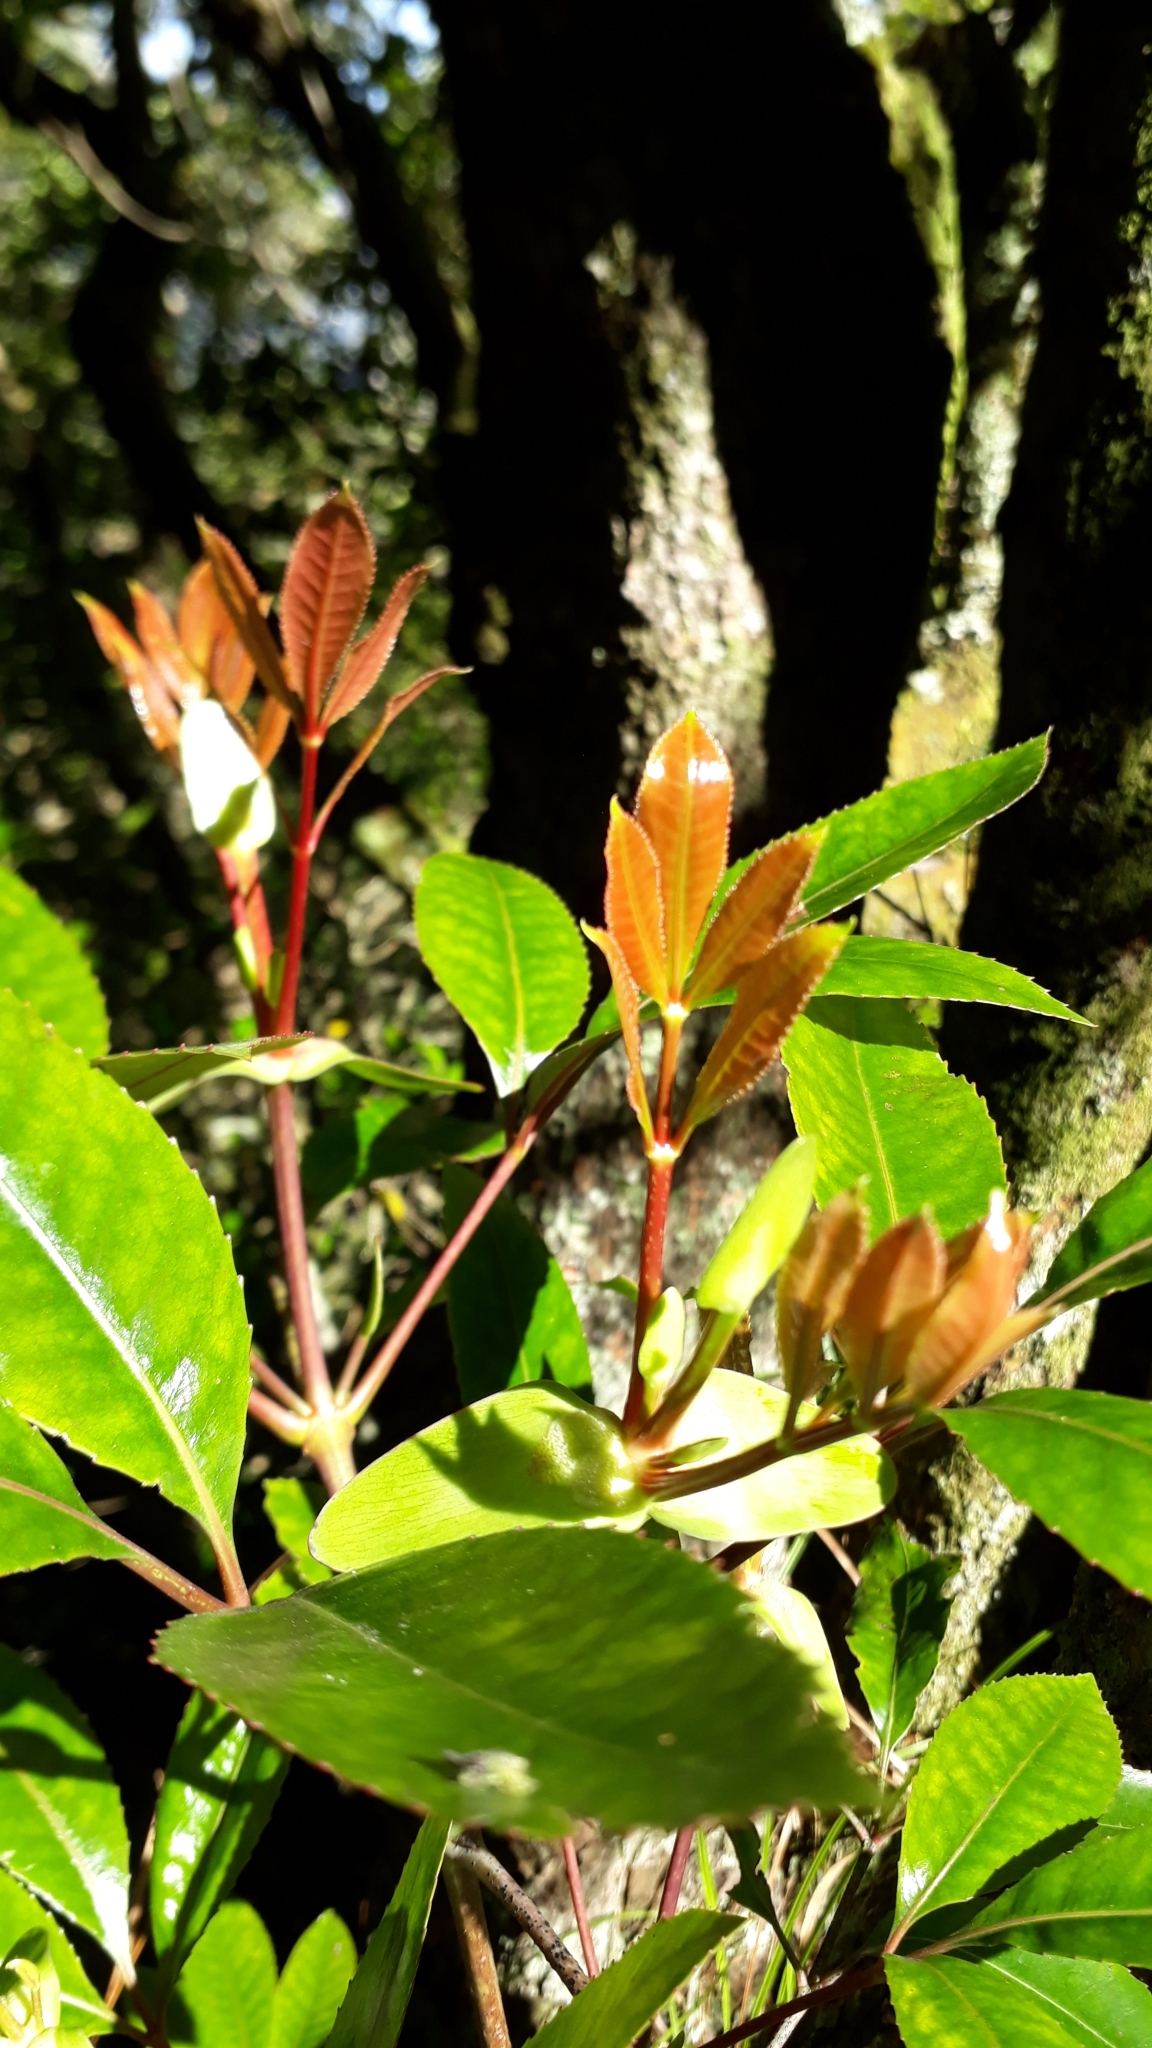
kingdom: Plantae
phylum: Tracheophyta
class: Magnoliopsida
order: Oxalidales
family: Cunoniaceae
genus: Cunonia
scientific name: Cunonia capensis
